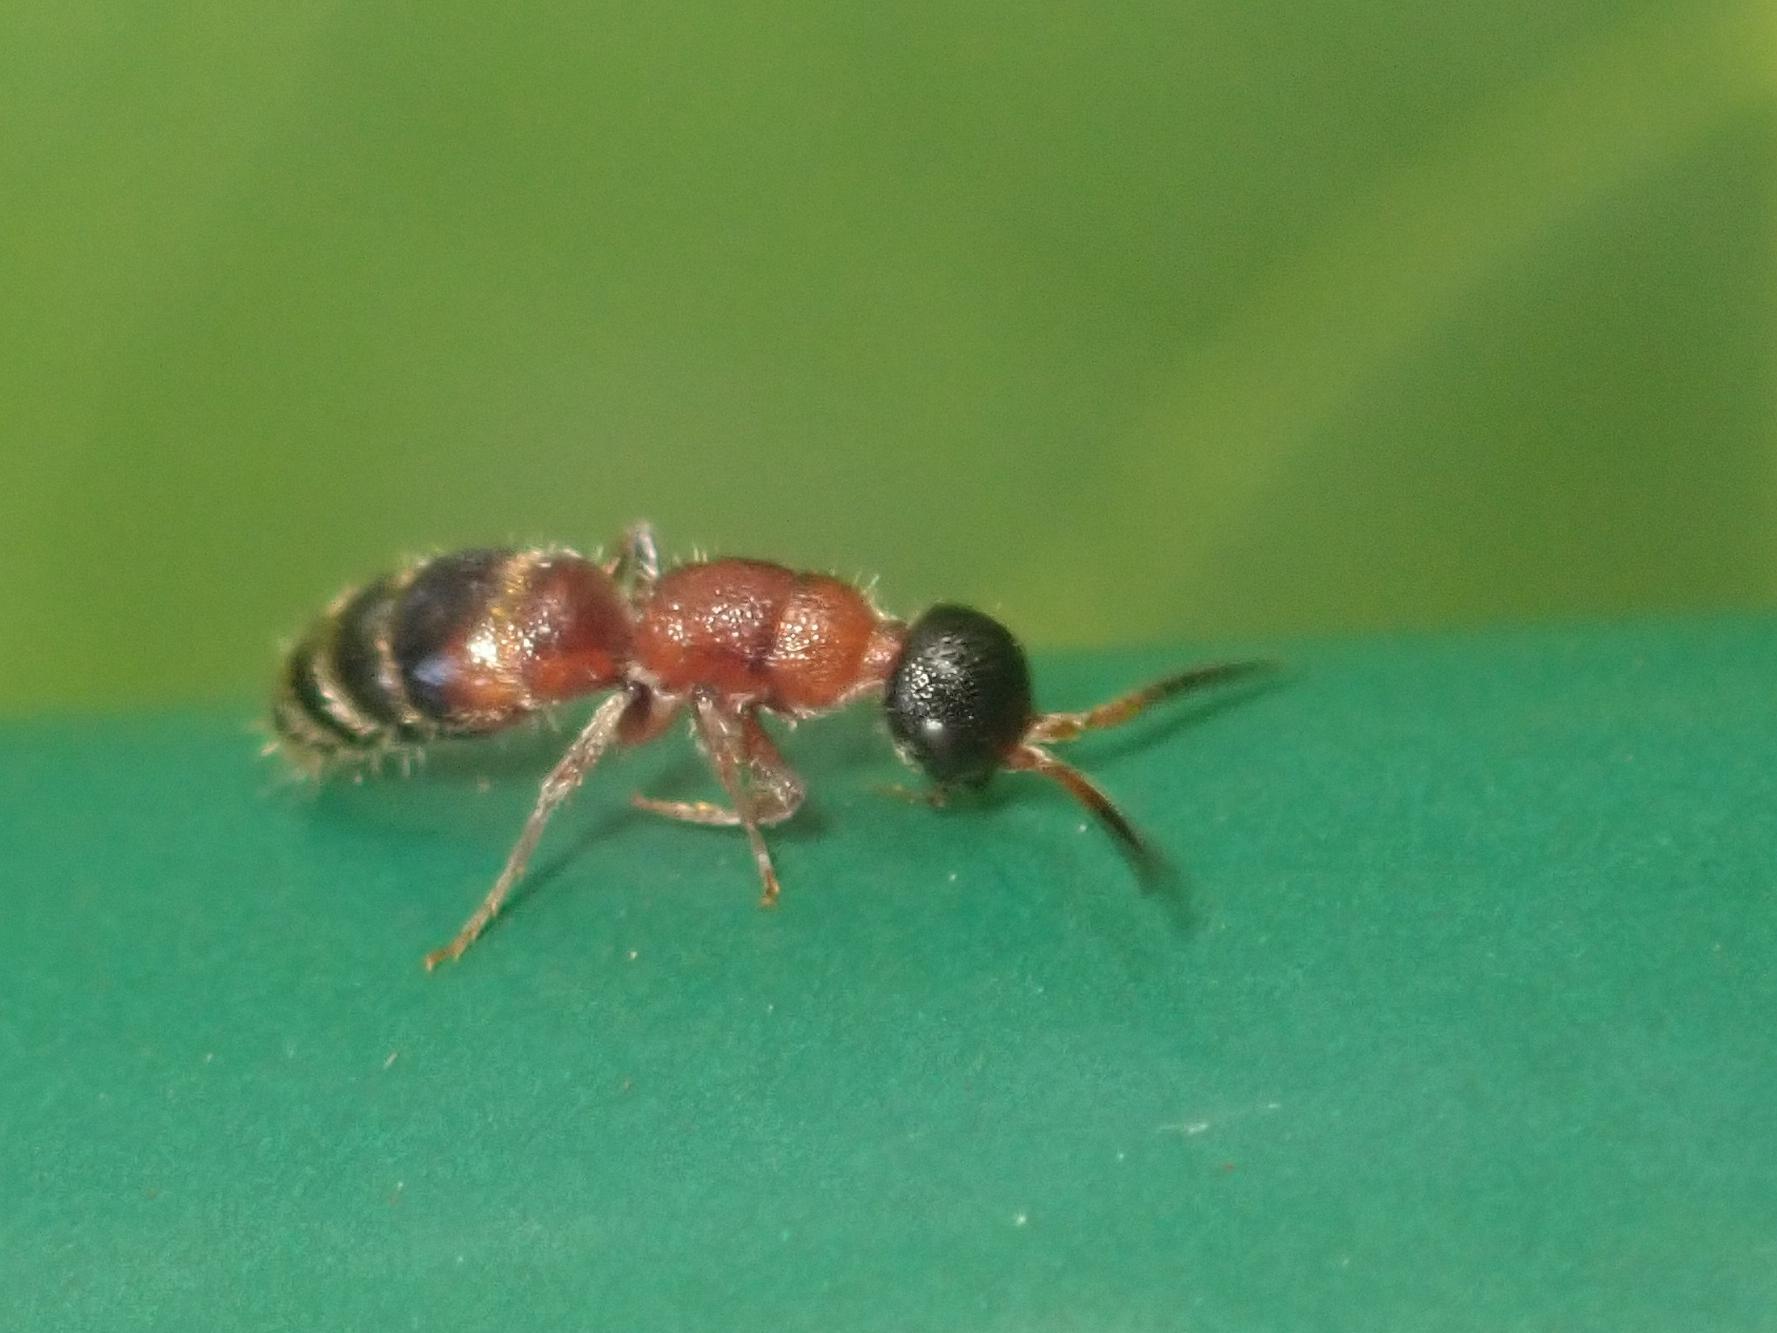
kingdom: Animalia
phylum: Arthropoda
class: Insecta
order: Hymenoptera
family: Mutillidae
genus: Myrmosa
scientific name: Myrmosa atra
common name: Black headed velvet ant
